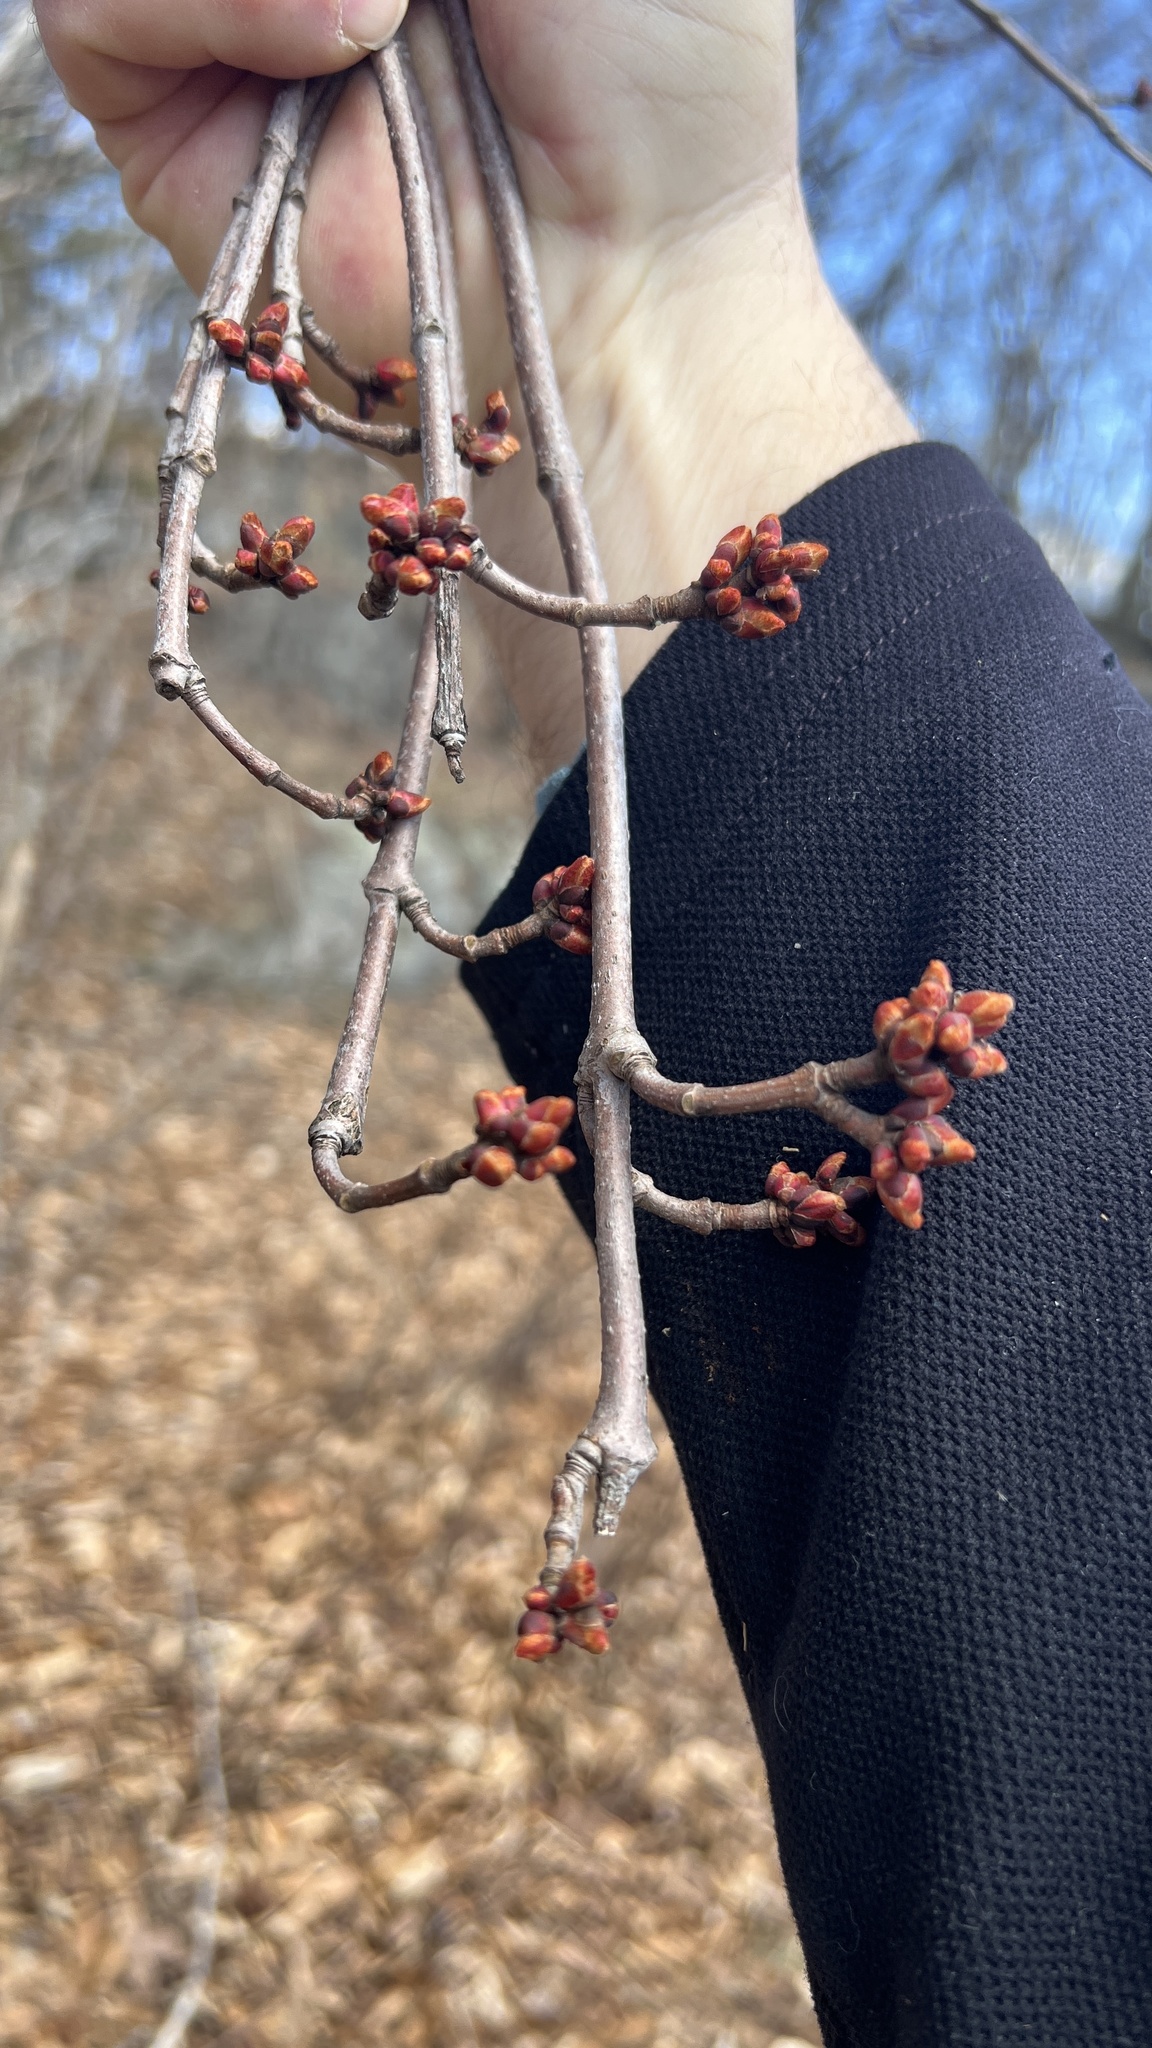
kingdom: Plantae
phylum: Tracheophyta
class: Magnoliopsida
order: Sapindales
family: Sapindaceae
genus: Acer
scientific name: Acer rubrum
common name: Red maple
